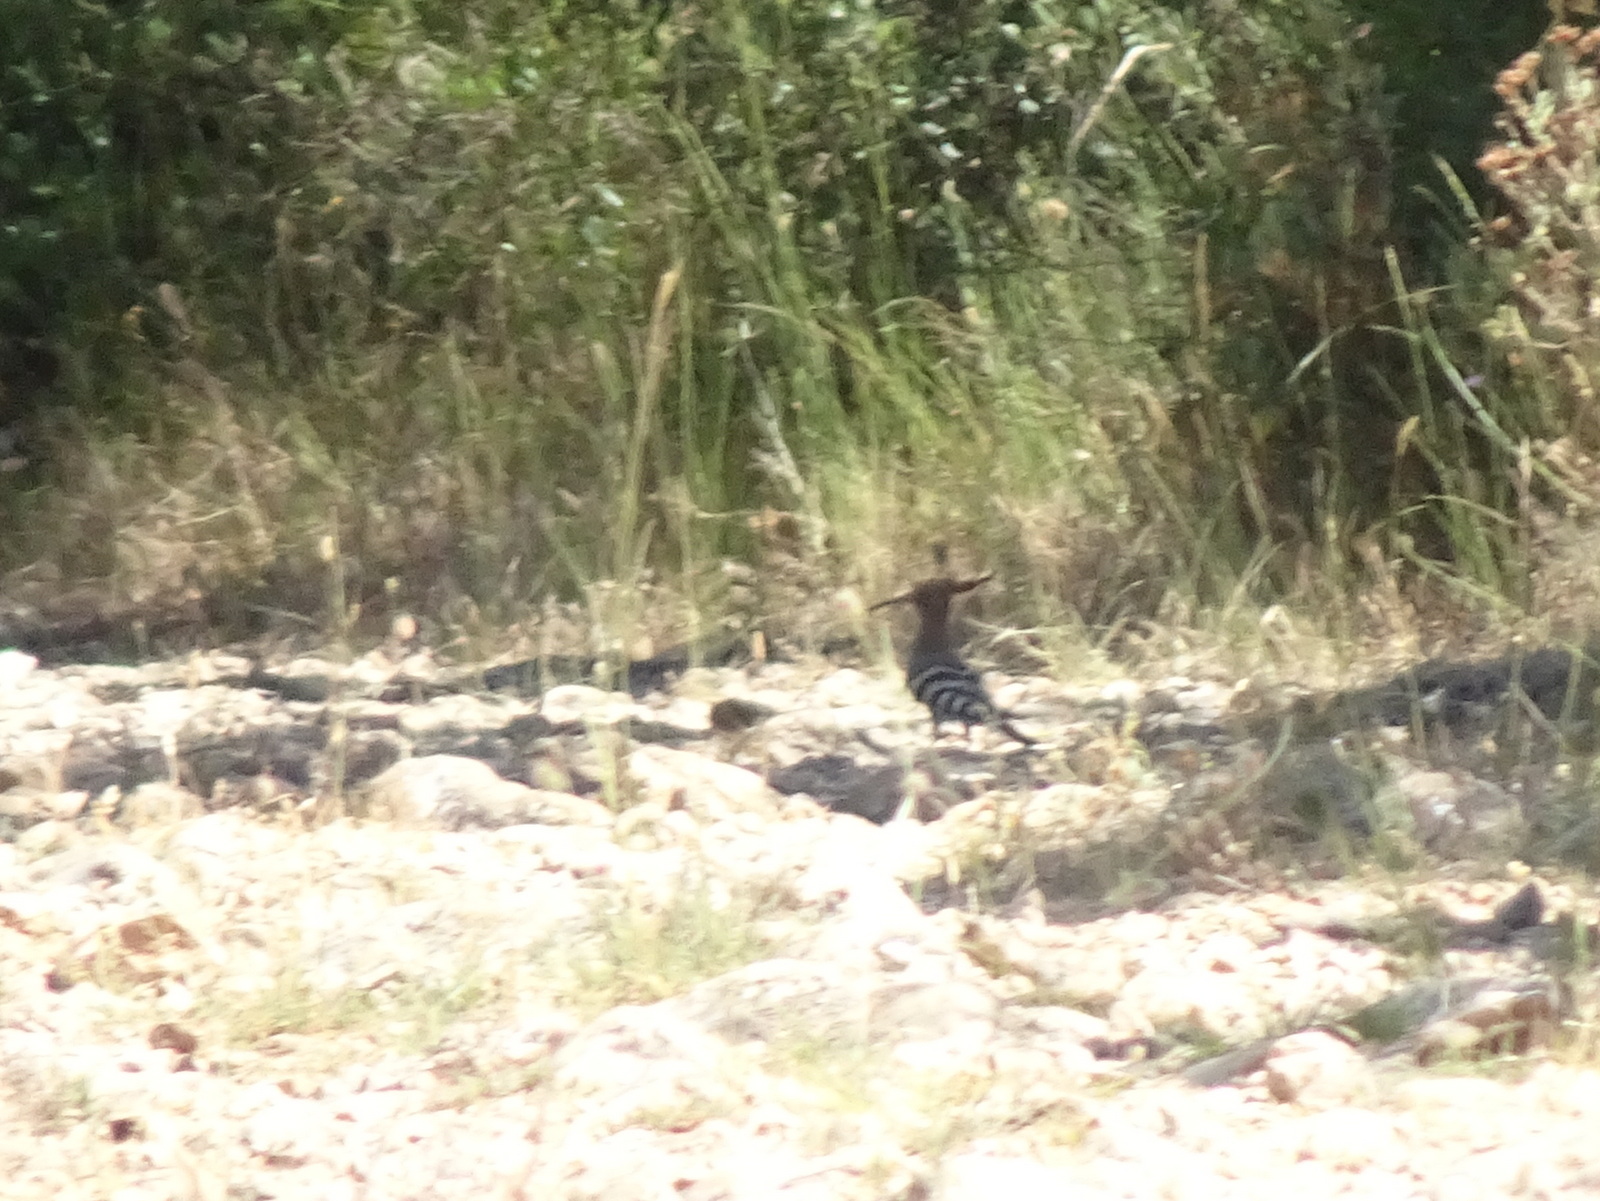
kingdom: Animalia
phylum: Chordata
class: Aves
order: Bucerotiformes
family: Upupidae
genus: Upupa
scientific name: Upupa epops
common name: Eurasian hoopoe
